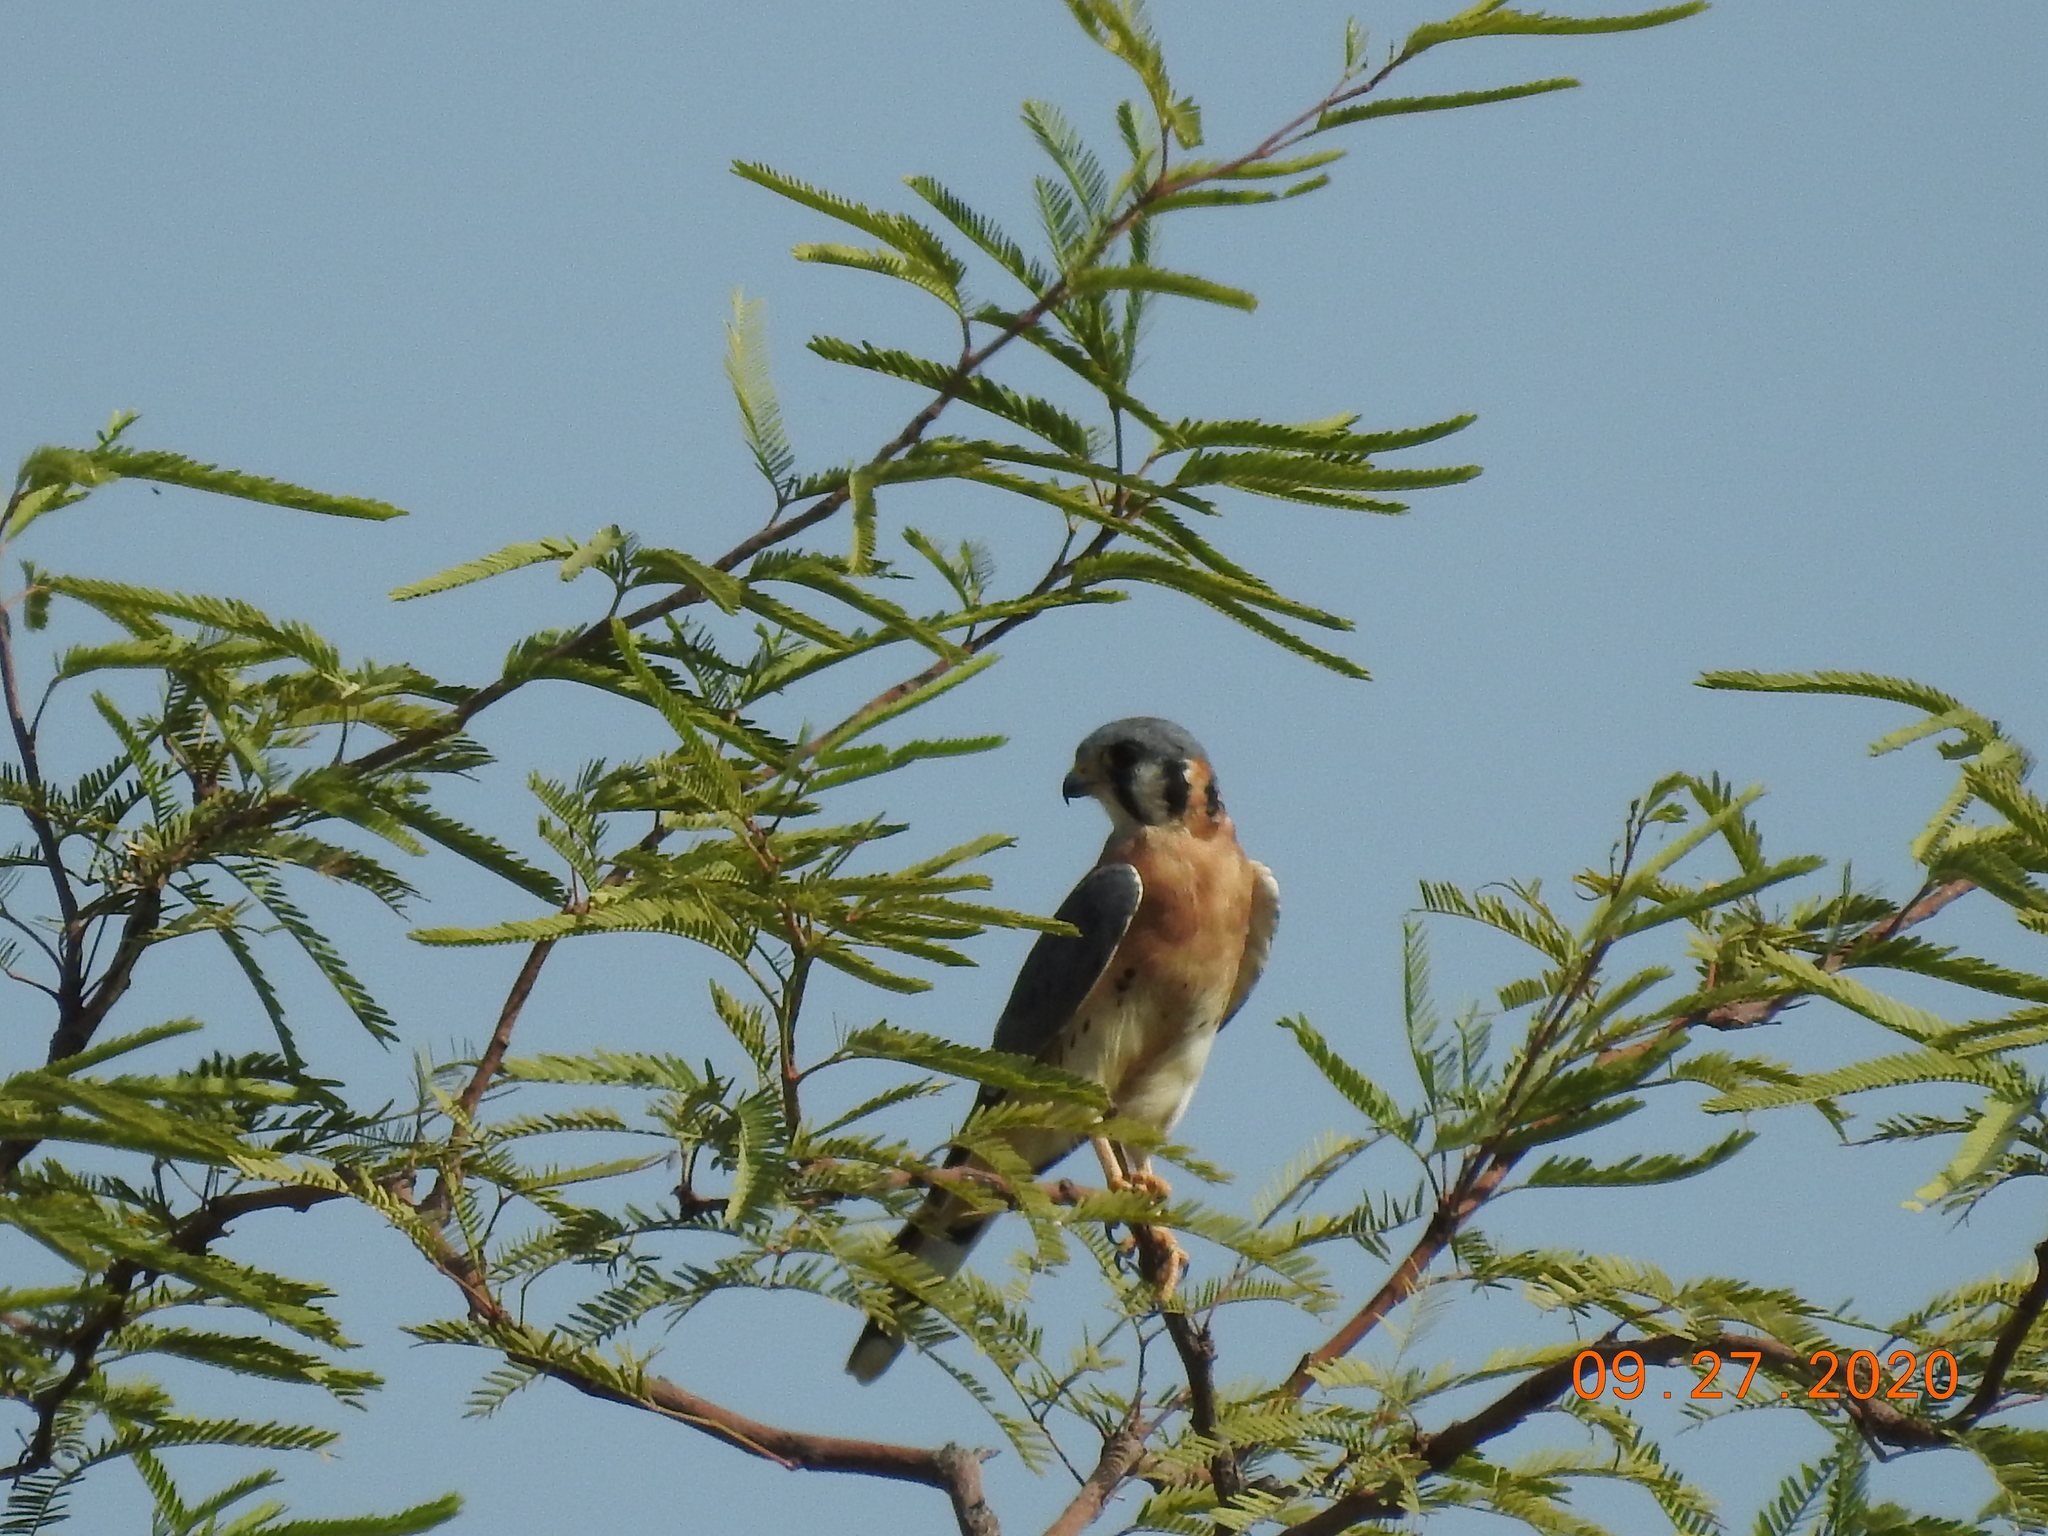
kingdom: Animalia
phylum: Chordata
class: Aves
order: Falconiformes
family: Falconidae
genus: Falco
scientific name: Falco sparverius
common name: American kestrel
